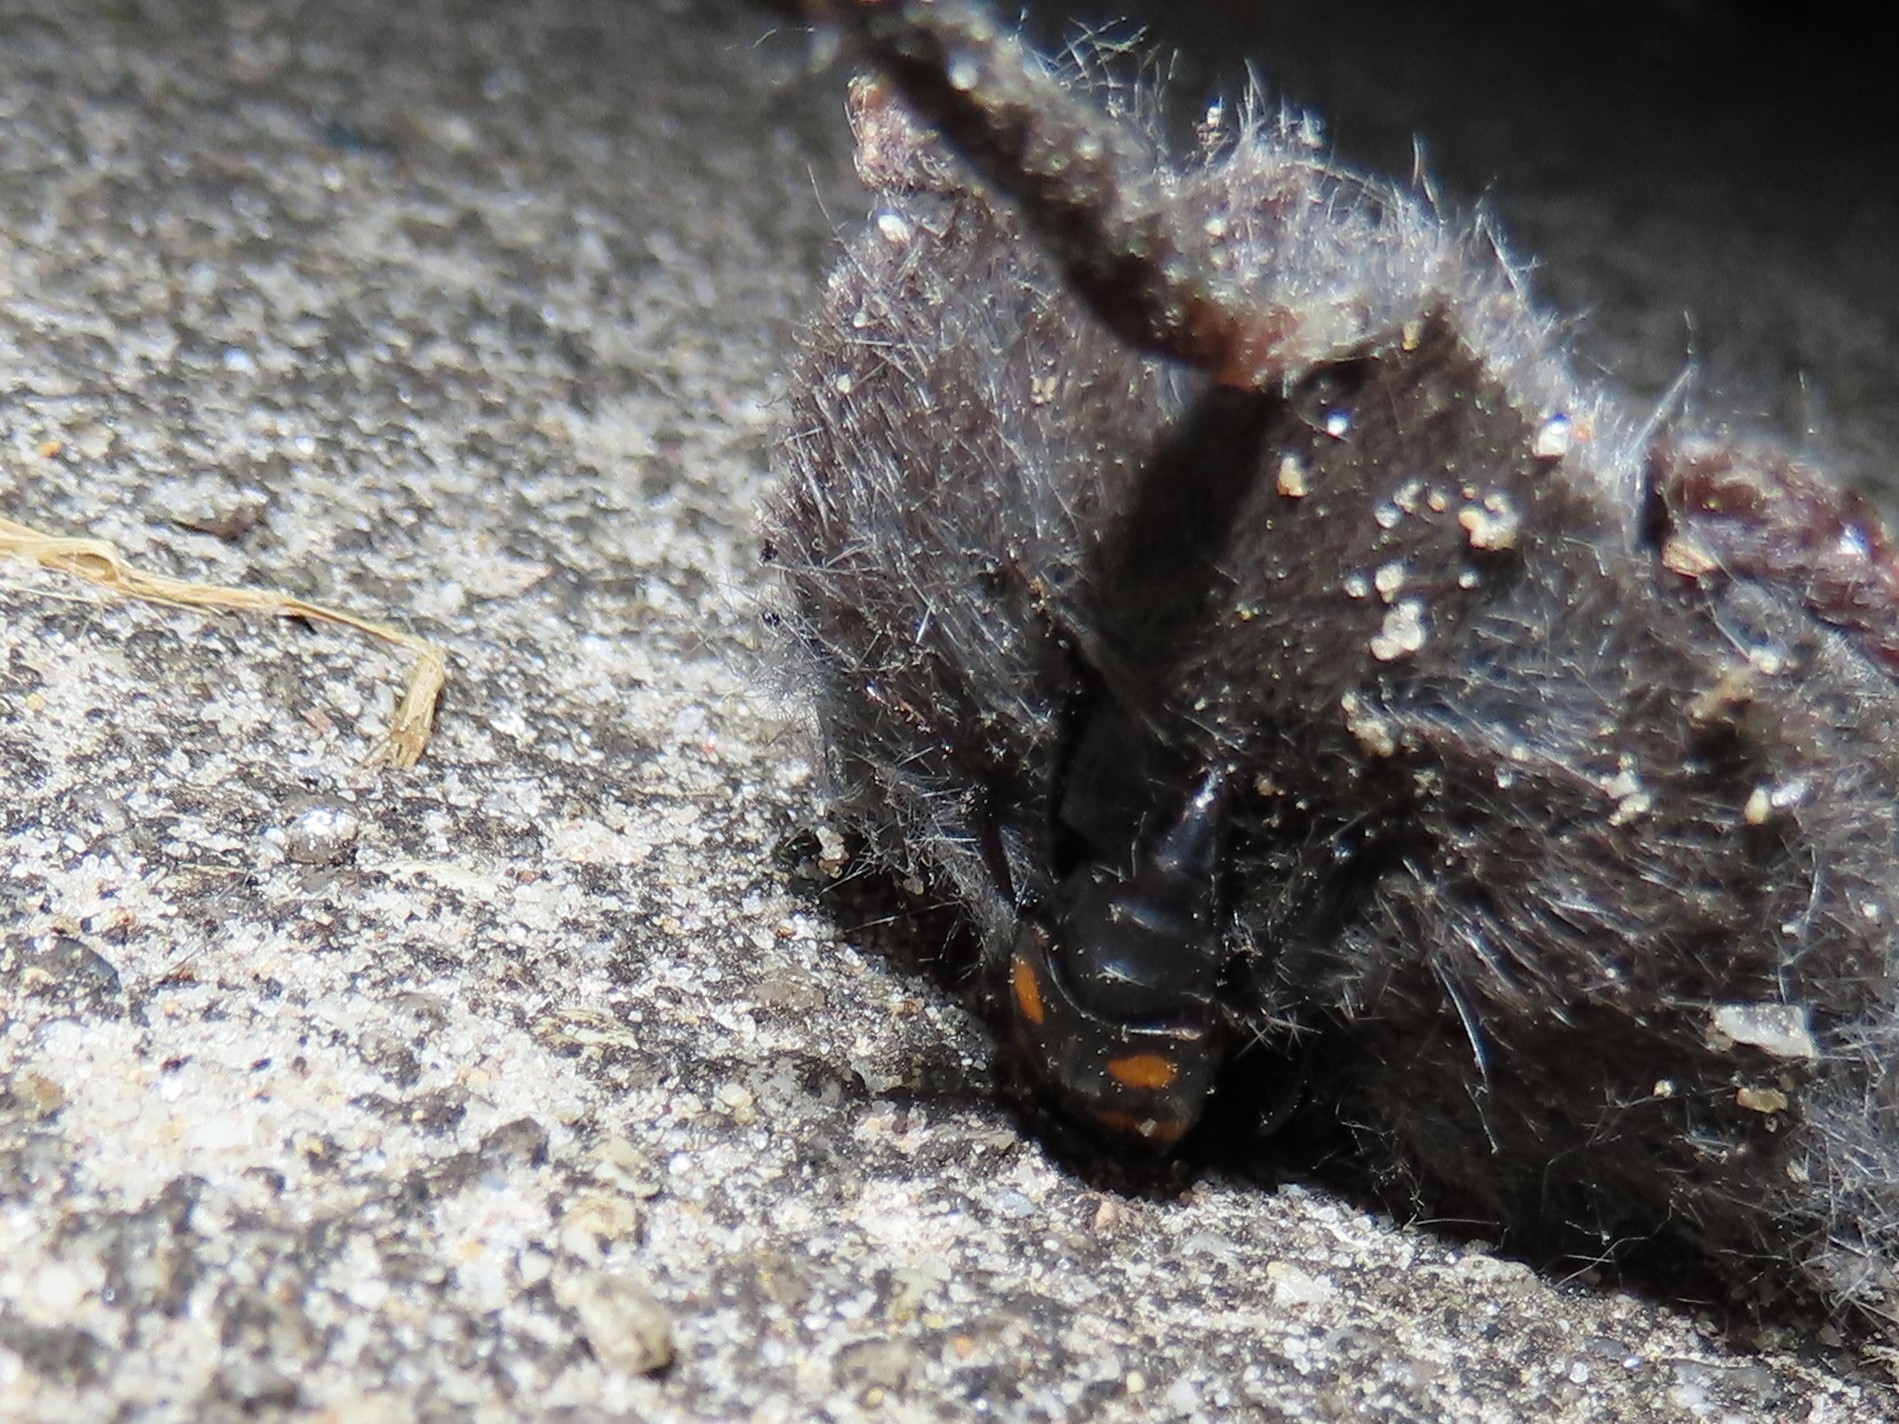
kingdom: Animalia
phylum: Arthropoda
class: Insecta
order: Coleoptera
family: Staphylinidae
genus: Nicrophorus
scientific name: Nicrophorus orbicollis
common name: Roundneck sexton beetle
